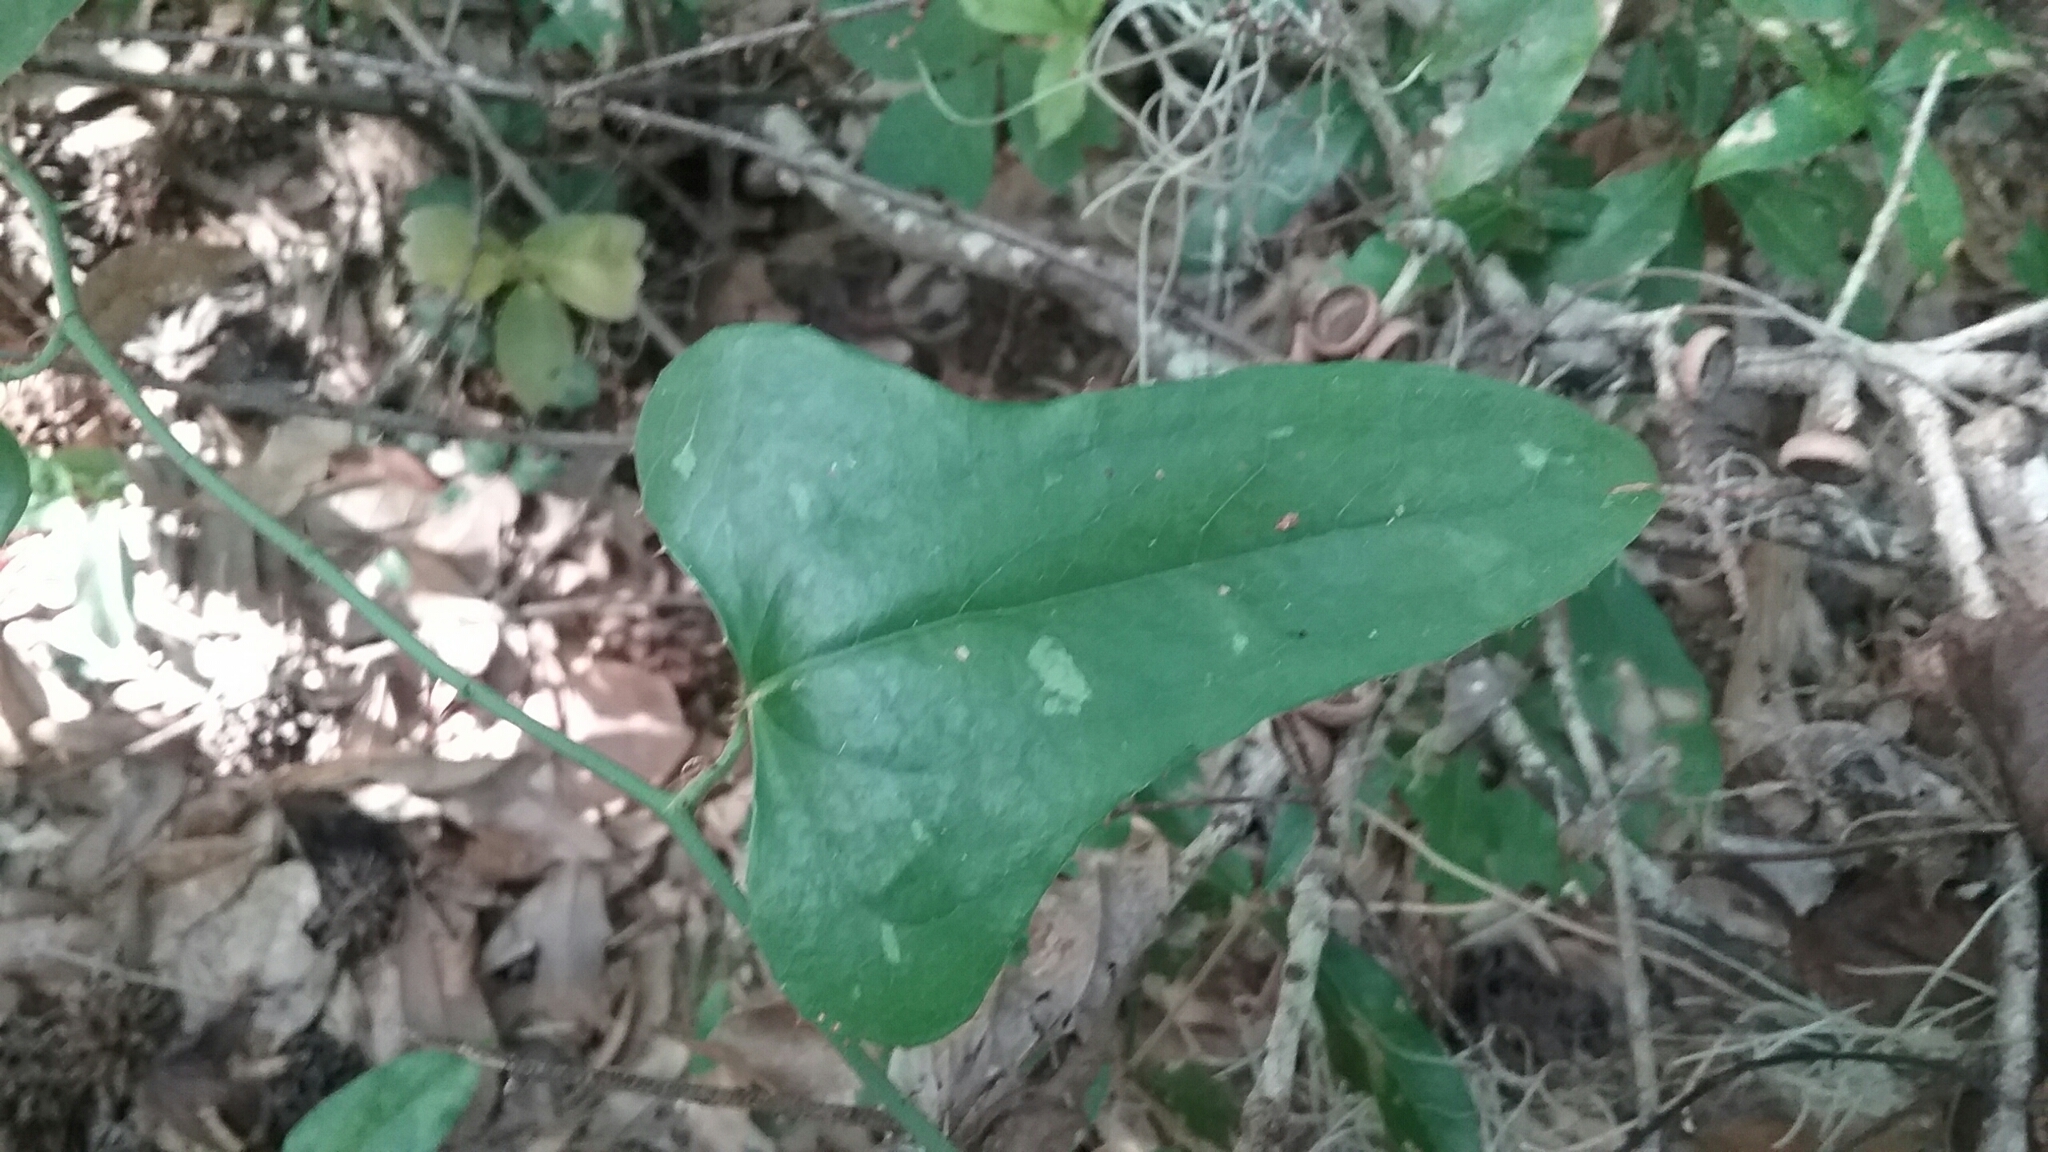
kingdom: Plantae
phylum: Tracheophyta
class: Liliopsida
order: Liliales
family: Smilacaceae
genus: Smilax
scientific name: Smilax bona-nox
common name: Catbrier
